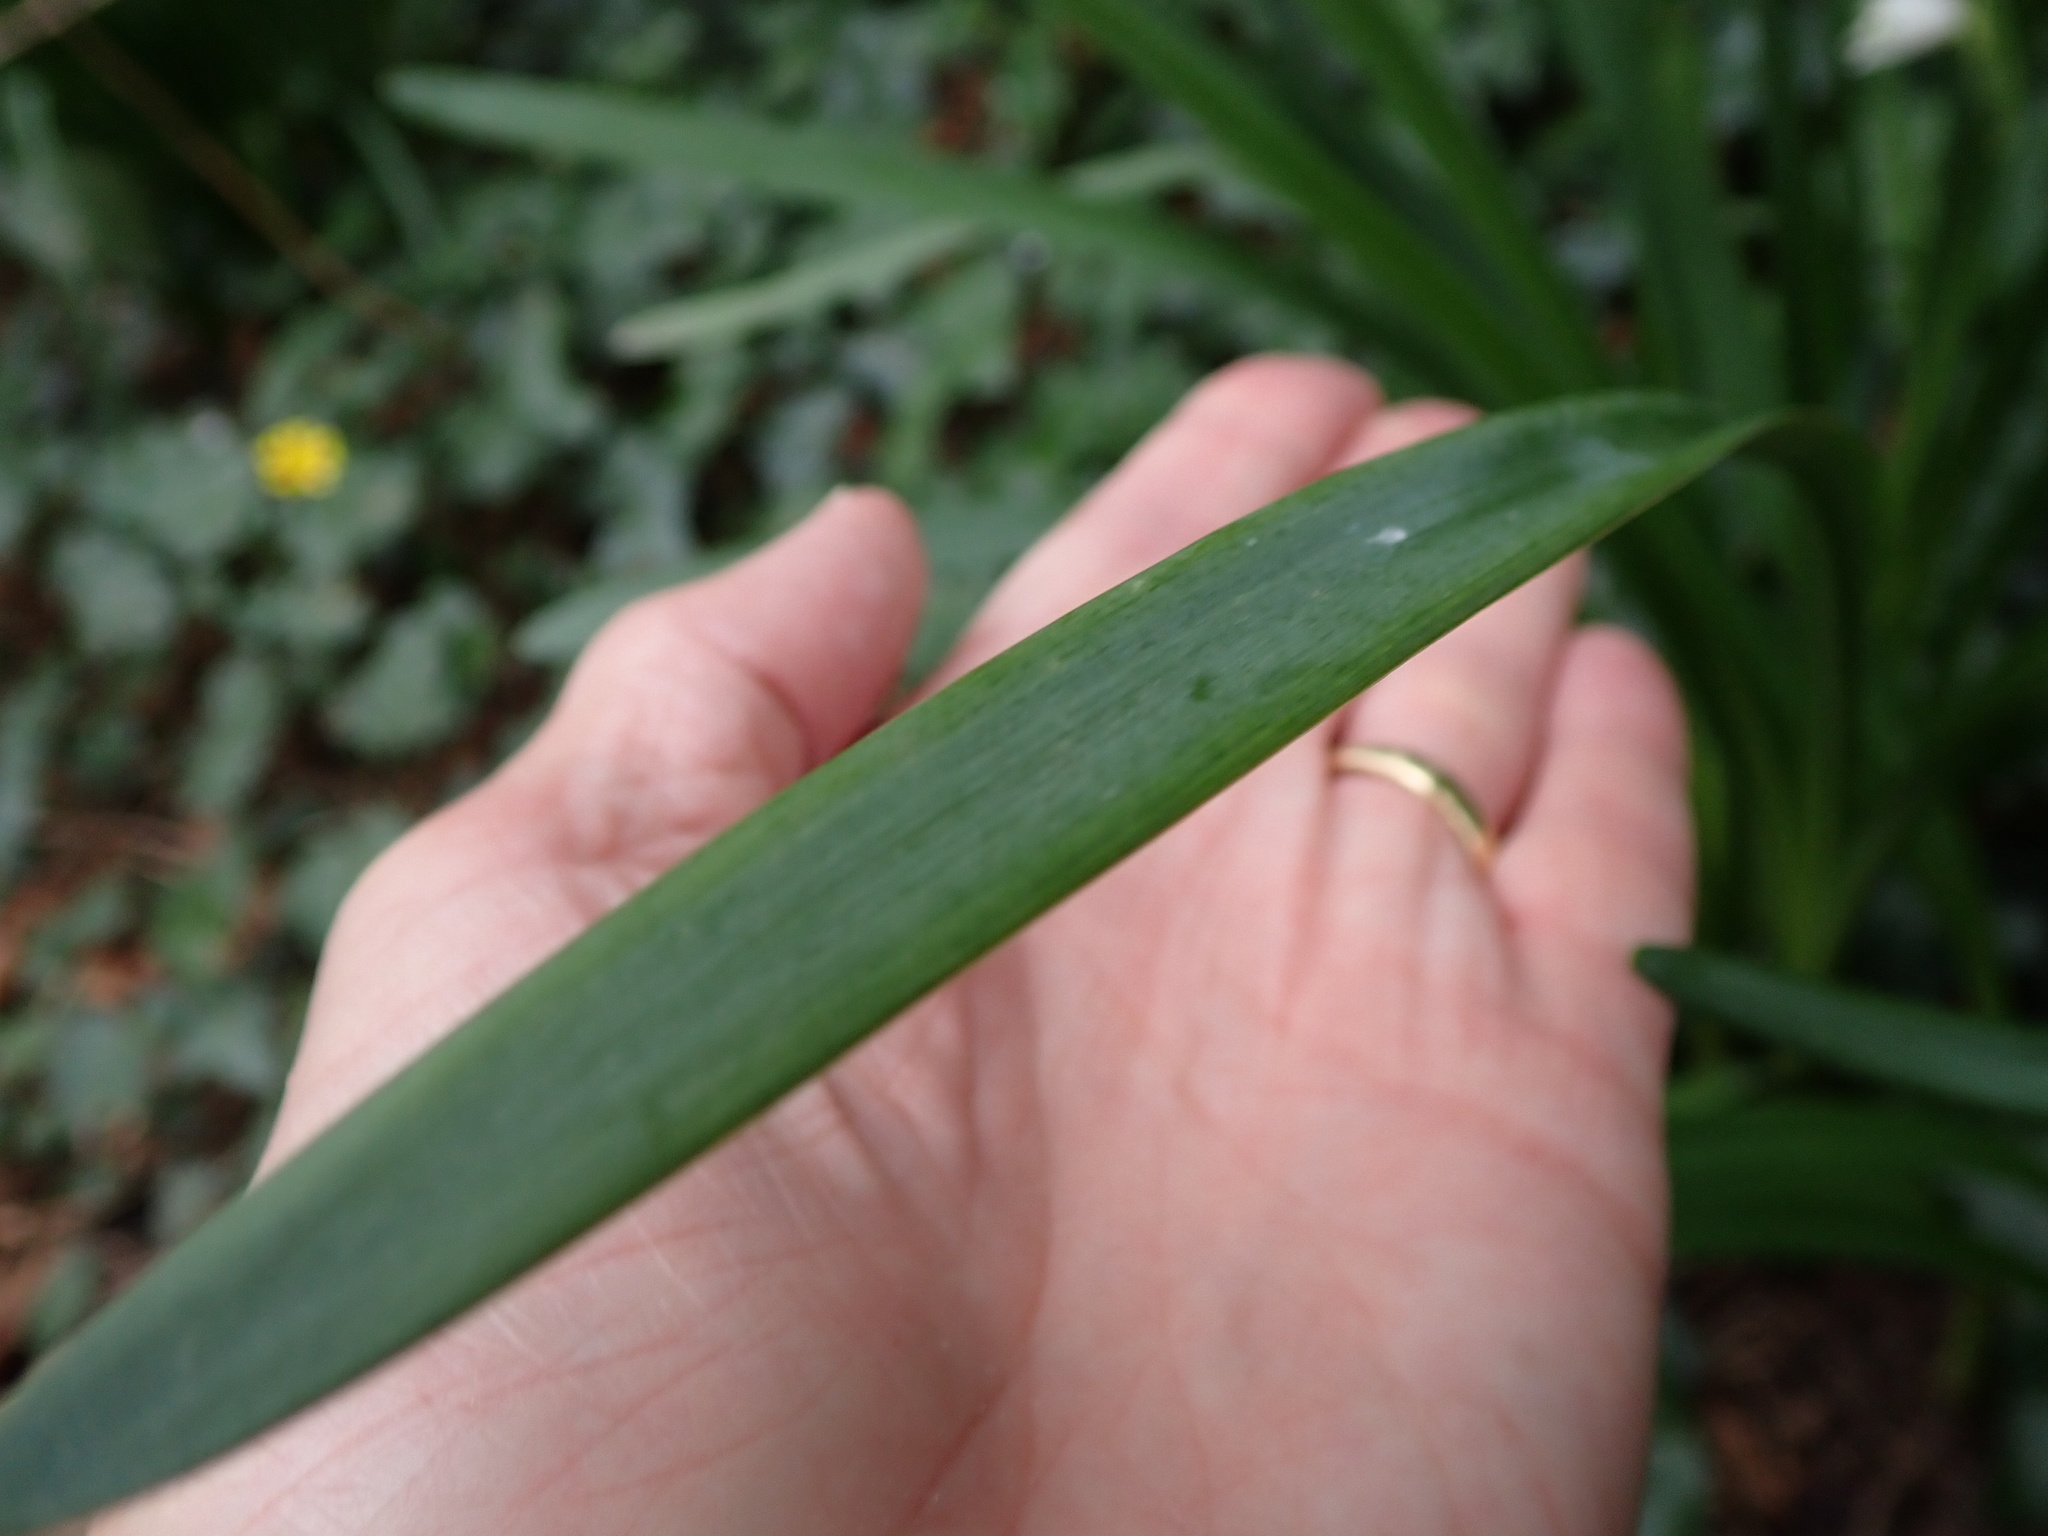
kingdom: Plantae
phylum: Tracheophyta
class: Liliopsida
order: Asparagales
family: Amaryllidaceae
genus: Leucojum
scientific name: Leucojum aestivum
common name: Summer snowflake
